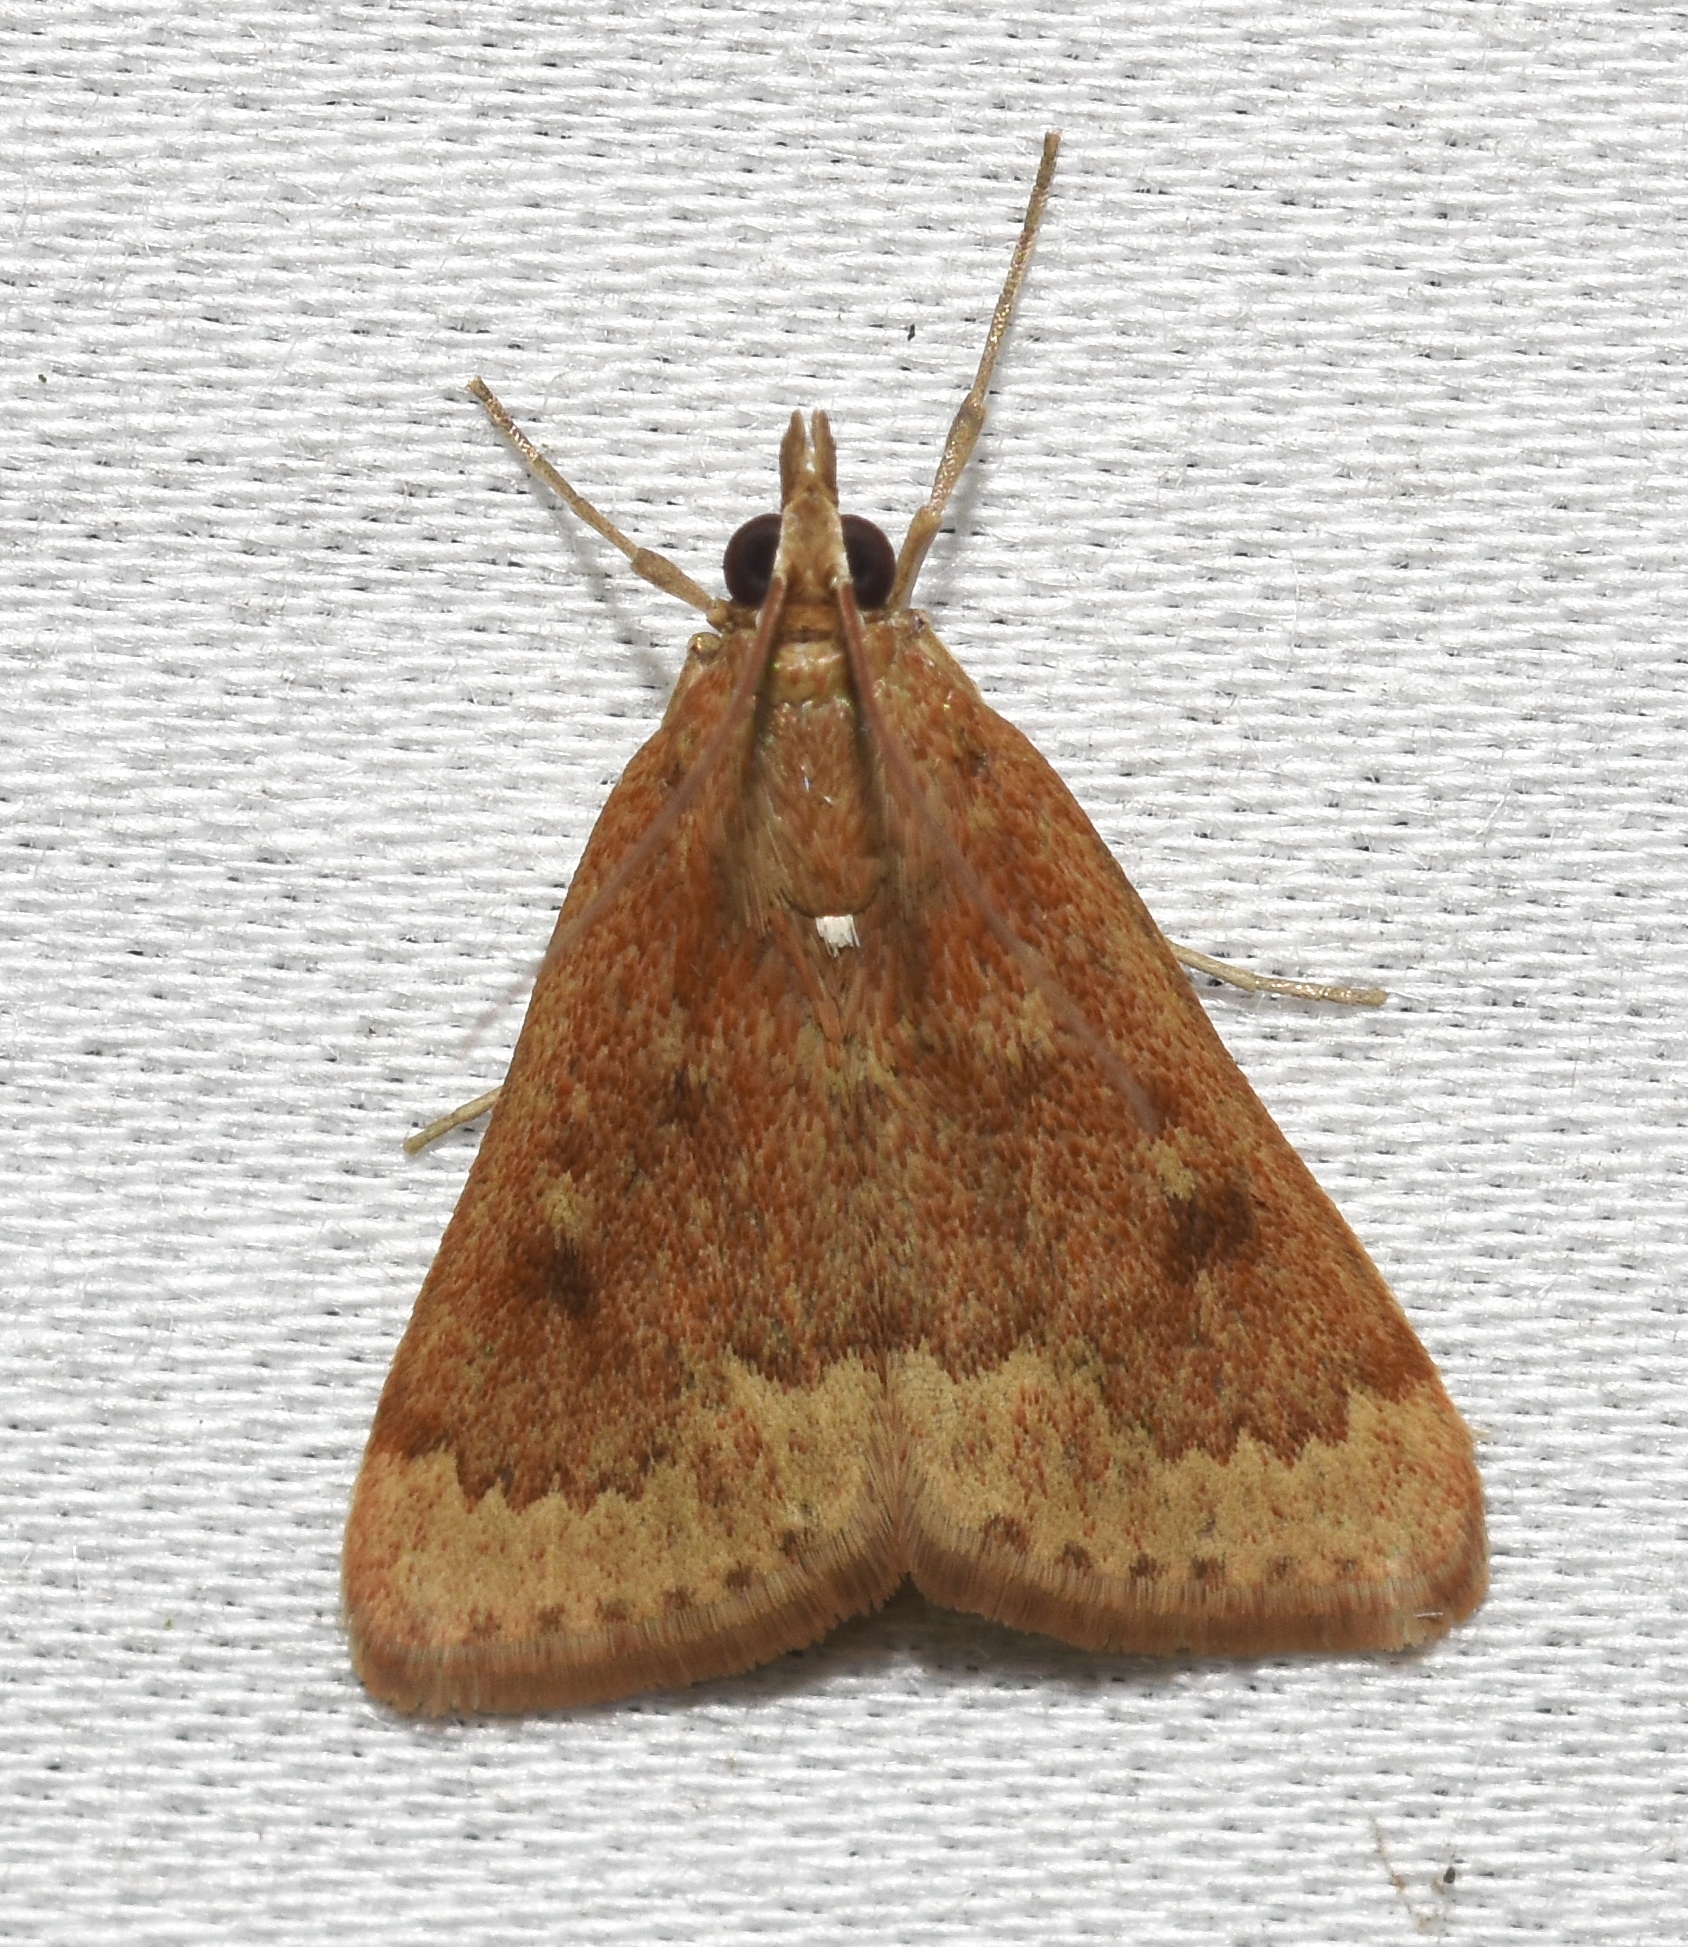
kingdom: Animalia
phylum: Arthropoda
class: Insecta
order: Lepidoptera
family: Crambidae
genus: Achyra
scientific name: Achyra rantalis
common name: Garden webworm
